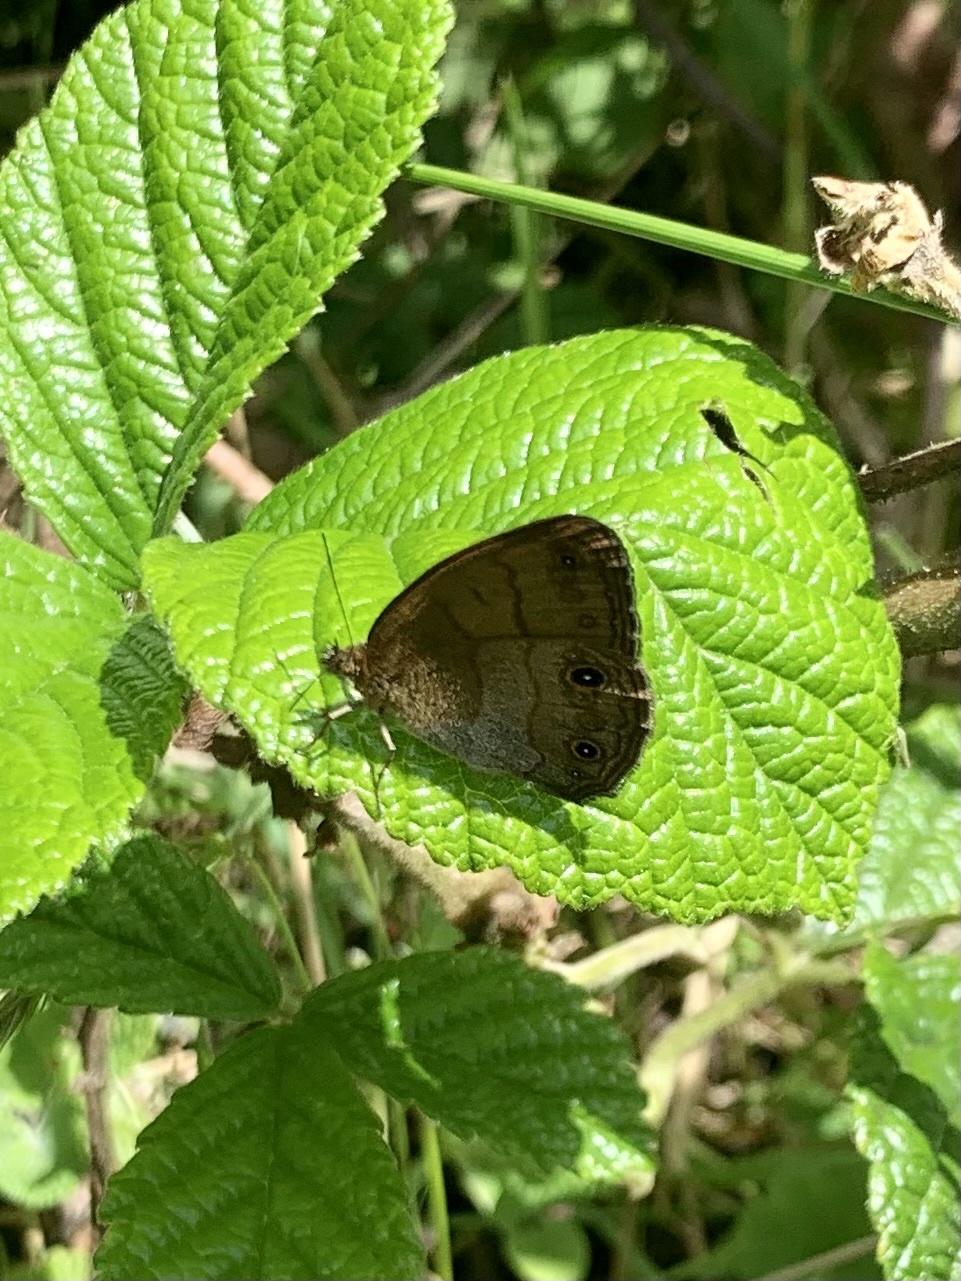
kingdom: Animalia
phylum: Arthropoda
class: Insecta
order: Lepidoptera
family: Nymphalidae
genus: Hermeuptychia
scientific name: Hermeuptychia harmonia
